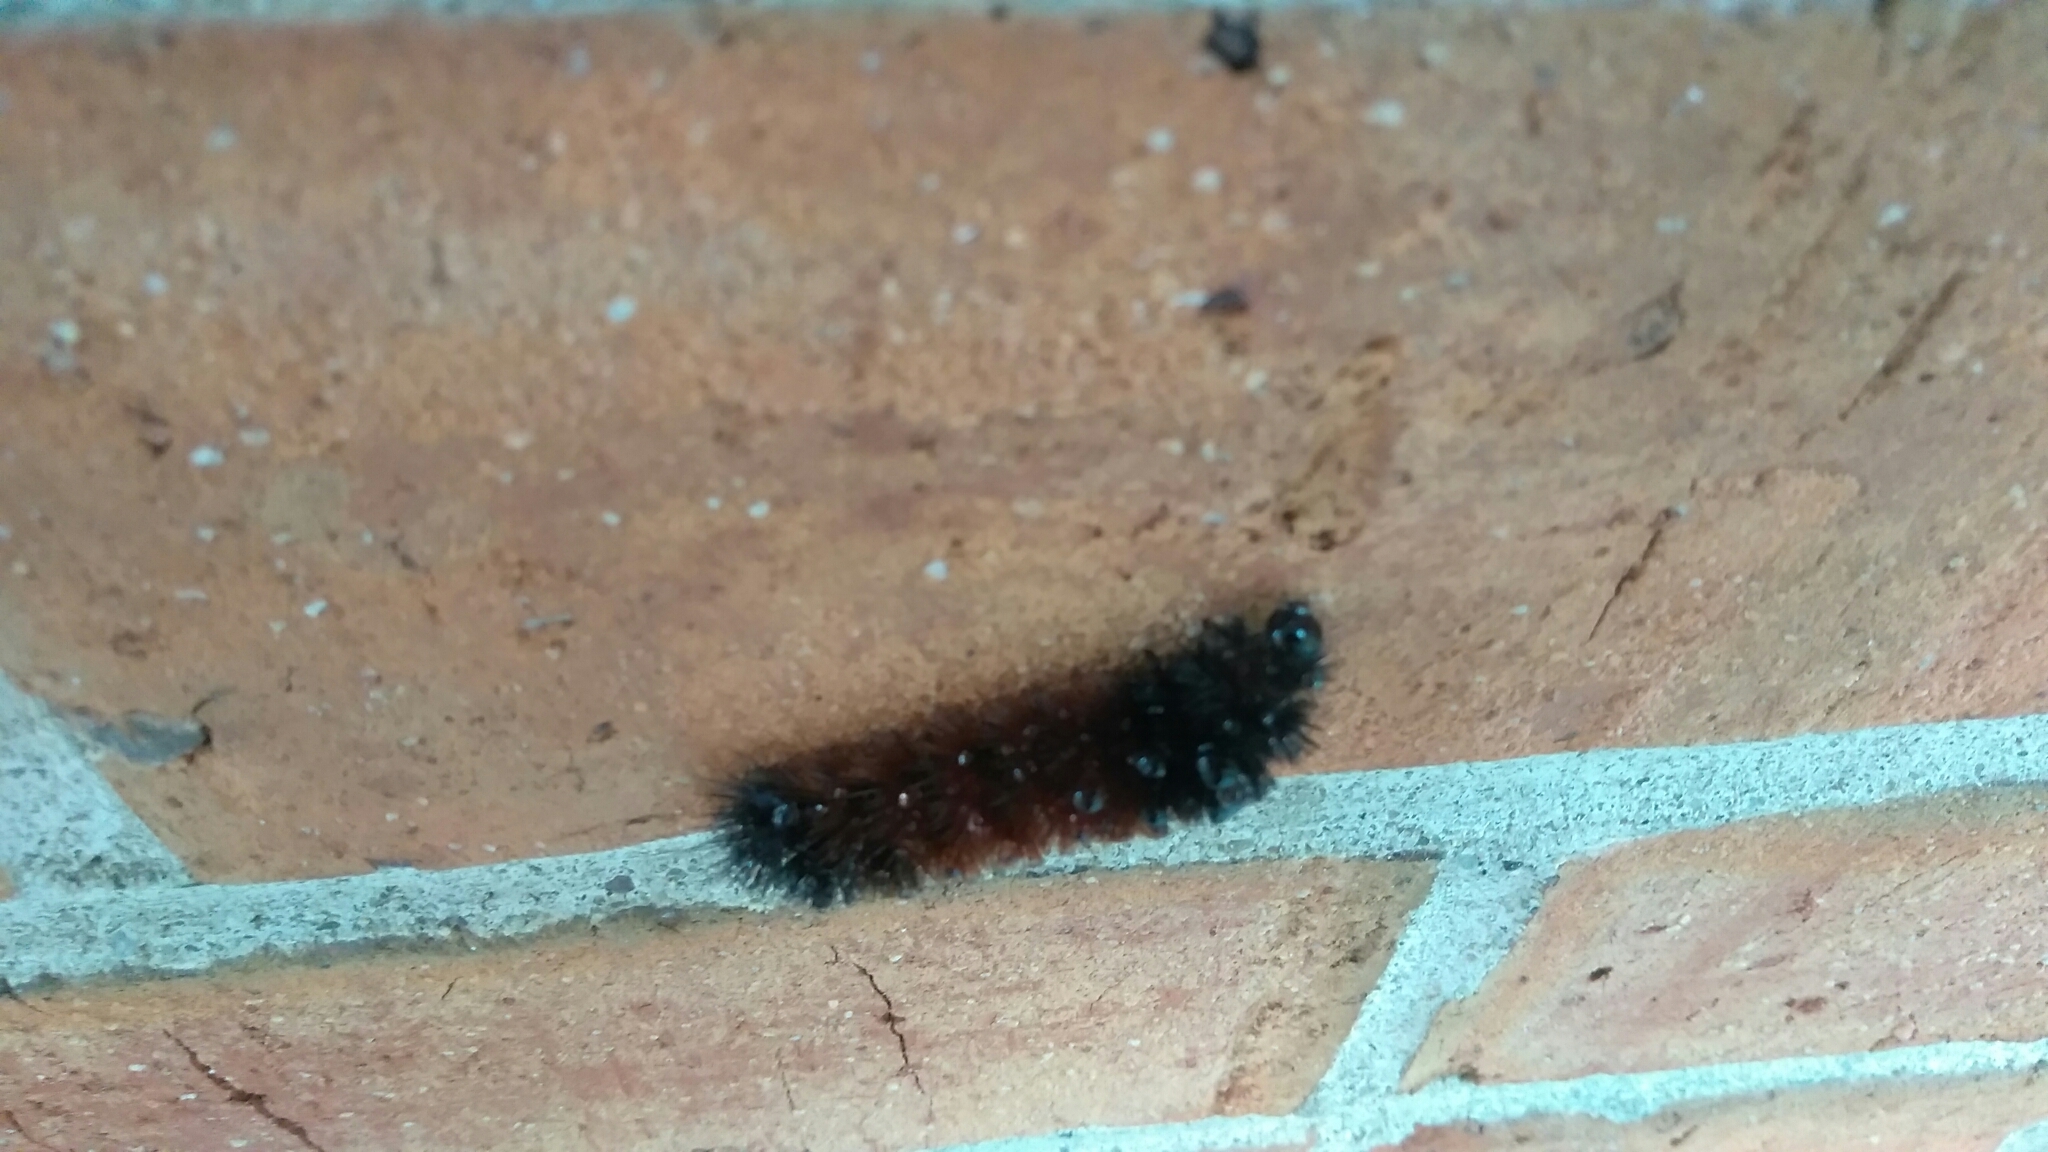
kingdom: Animalia
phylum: Arthropoda
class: Insecta
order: Lepidoptera
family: Erebidae
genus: Pyrrharctia
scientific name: Pyrrharctia isabella
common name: Isabella tiger moth
